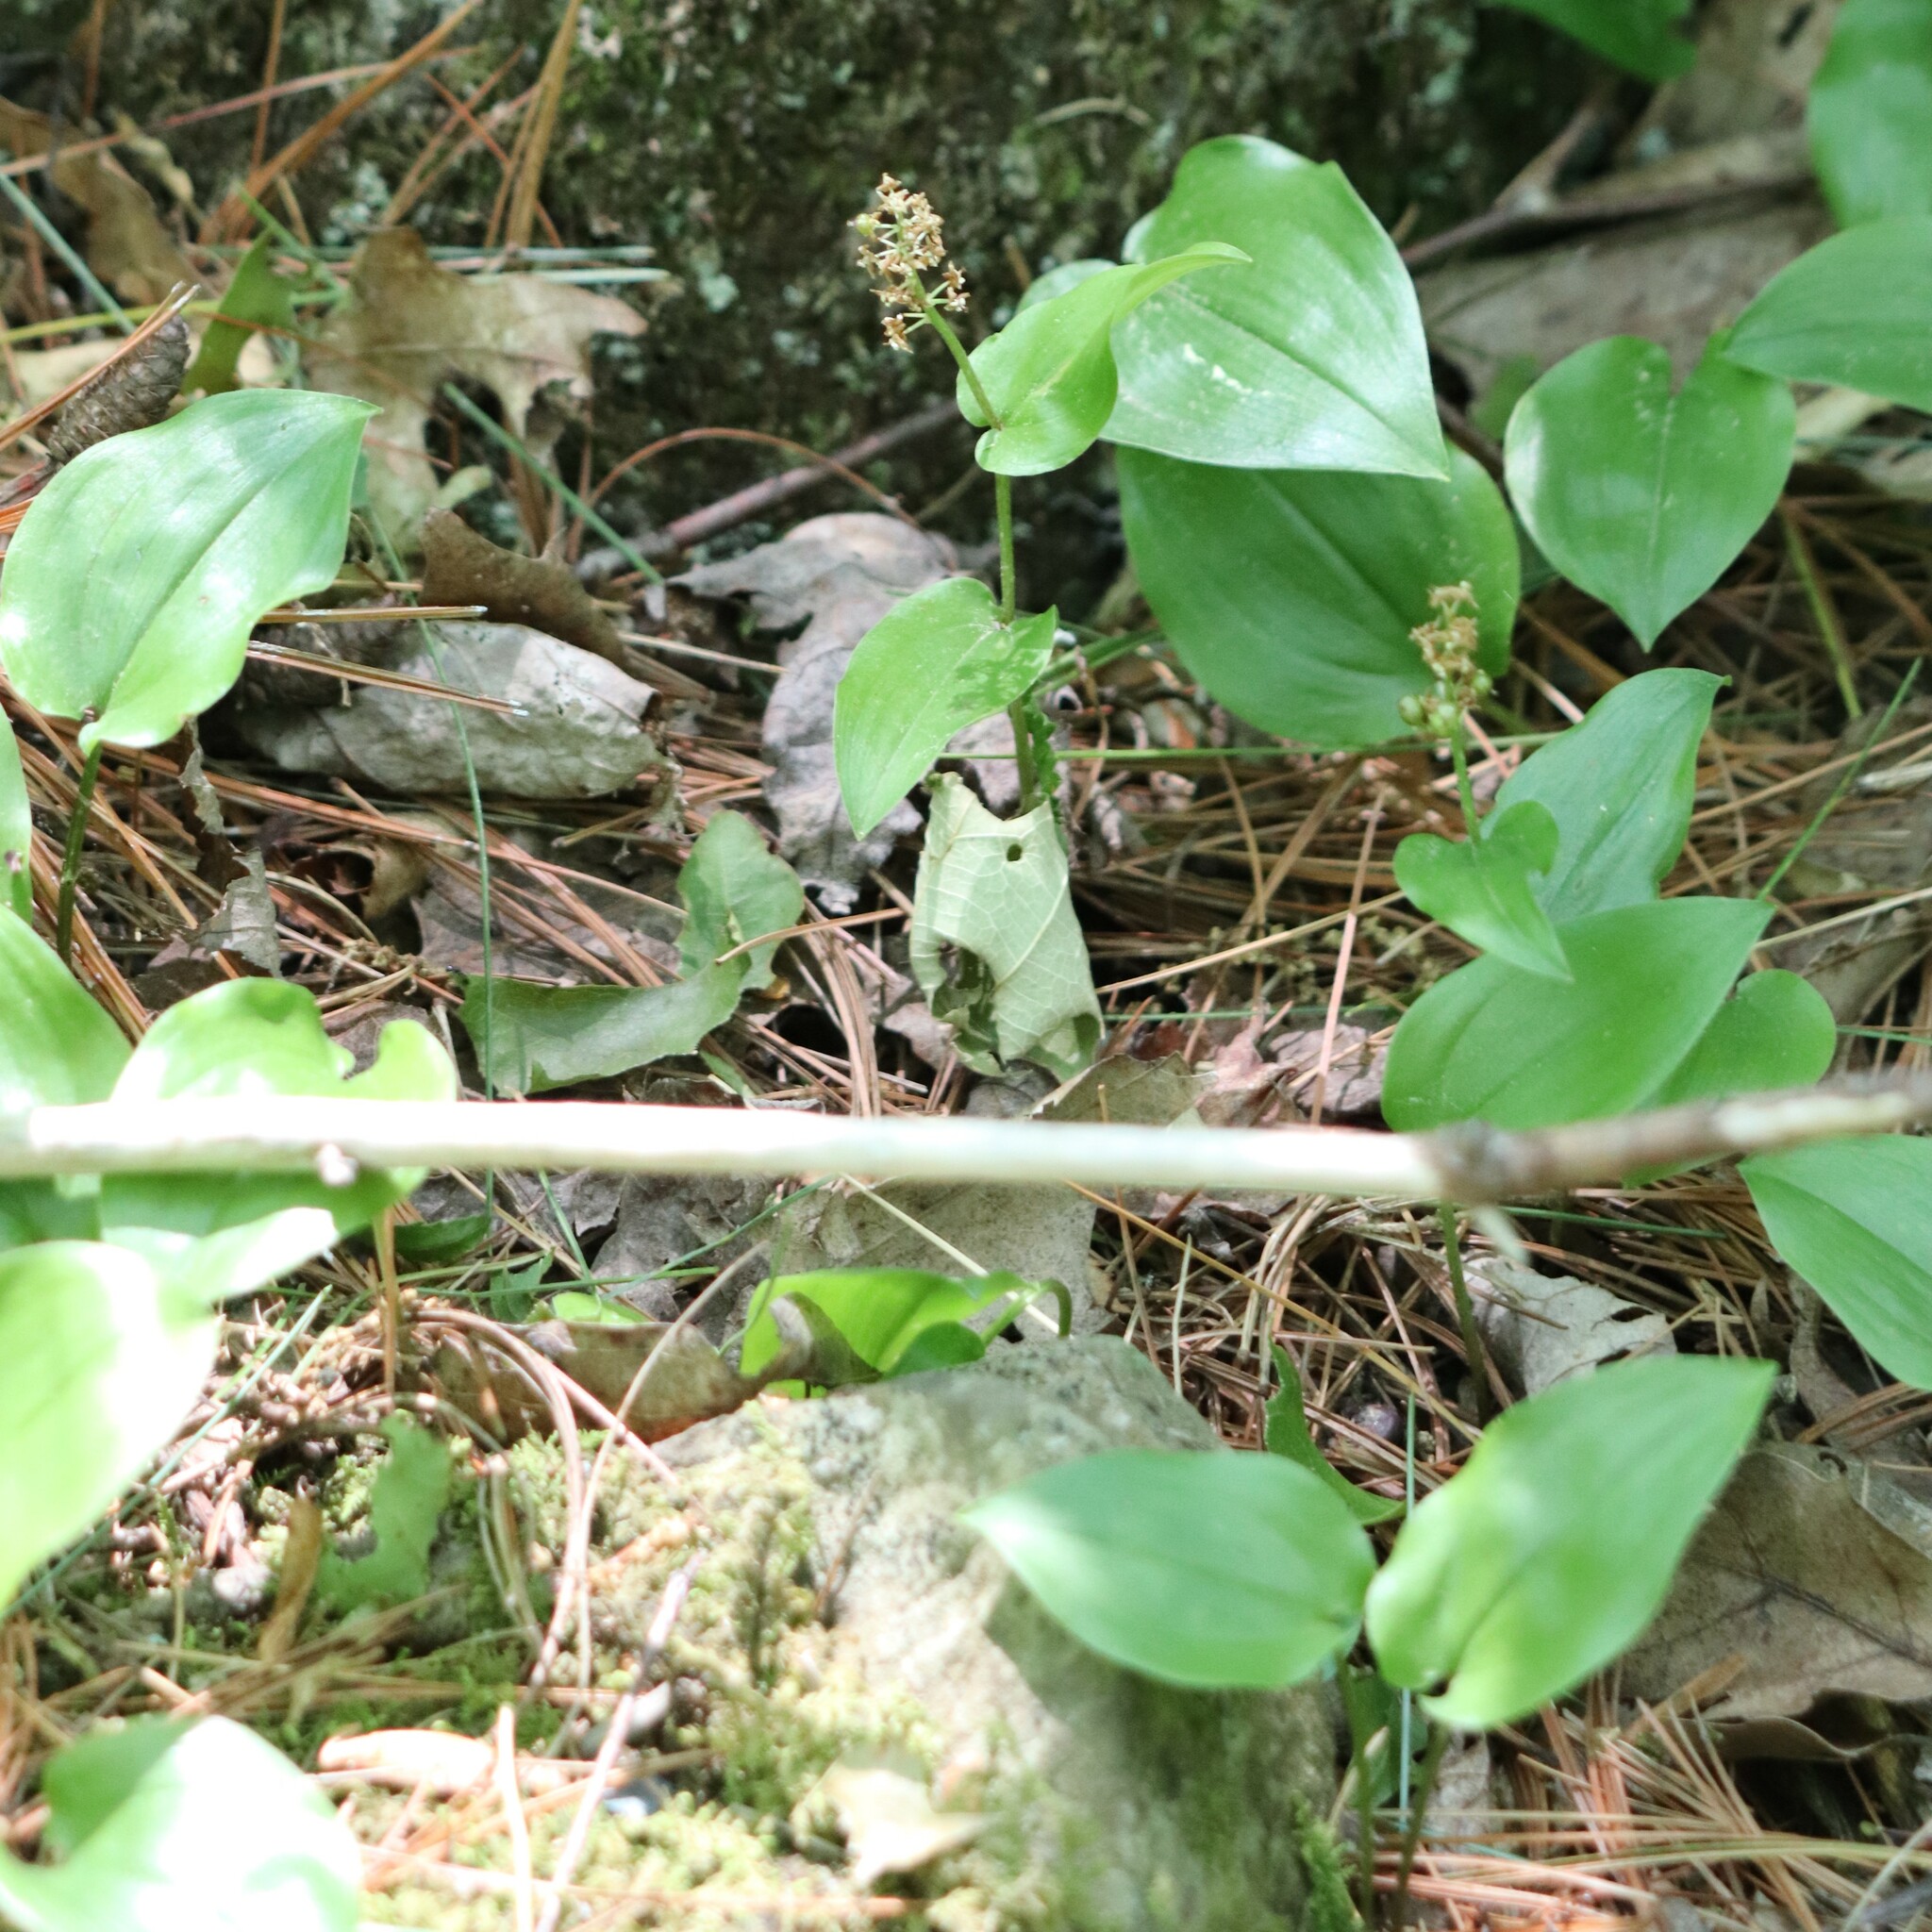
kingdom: Plantae
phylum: Tracheophyta
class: Liliopsida
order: Asparagales
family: Asparagaceae
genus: Maianthemum
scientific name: Maianthemum canadense
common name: False lily-of-the-valley
